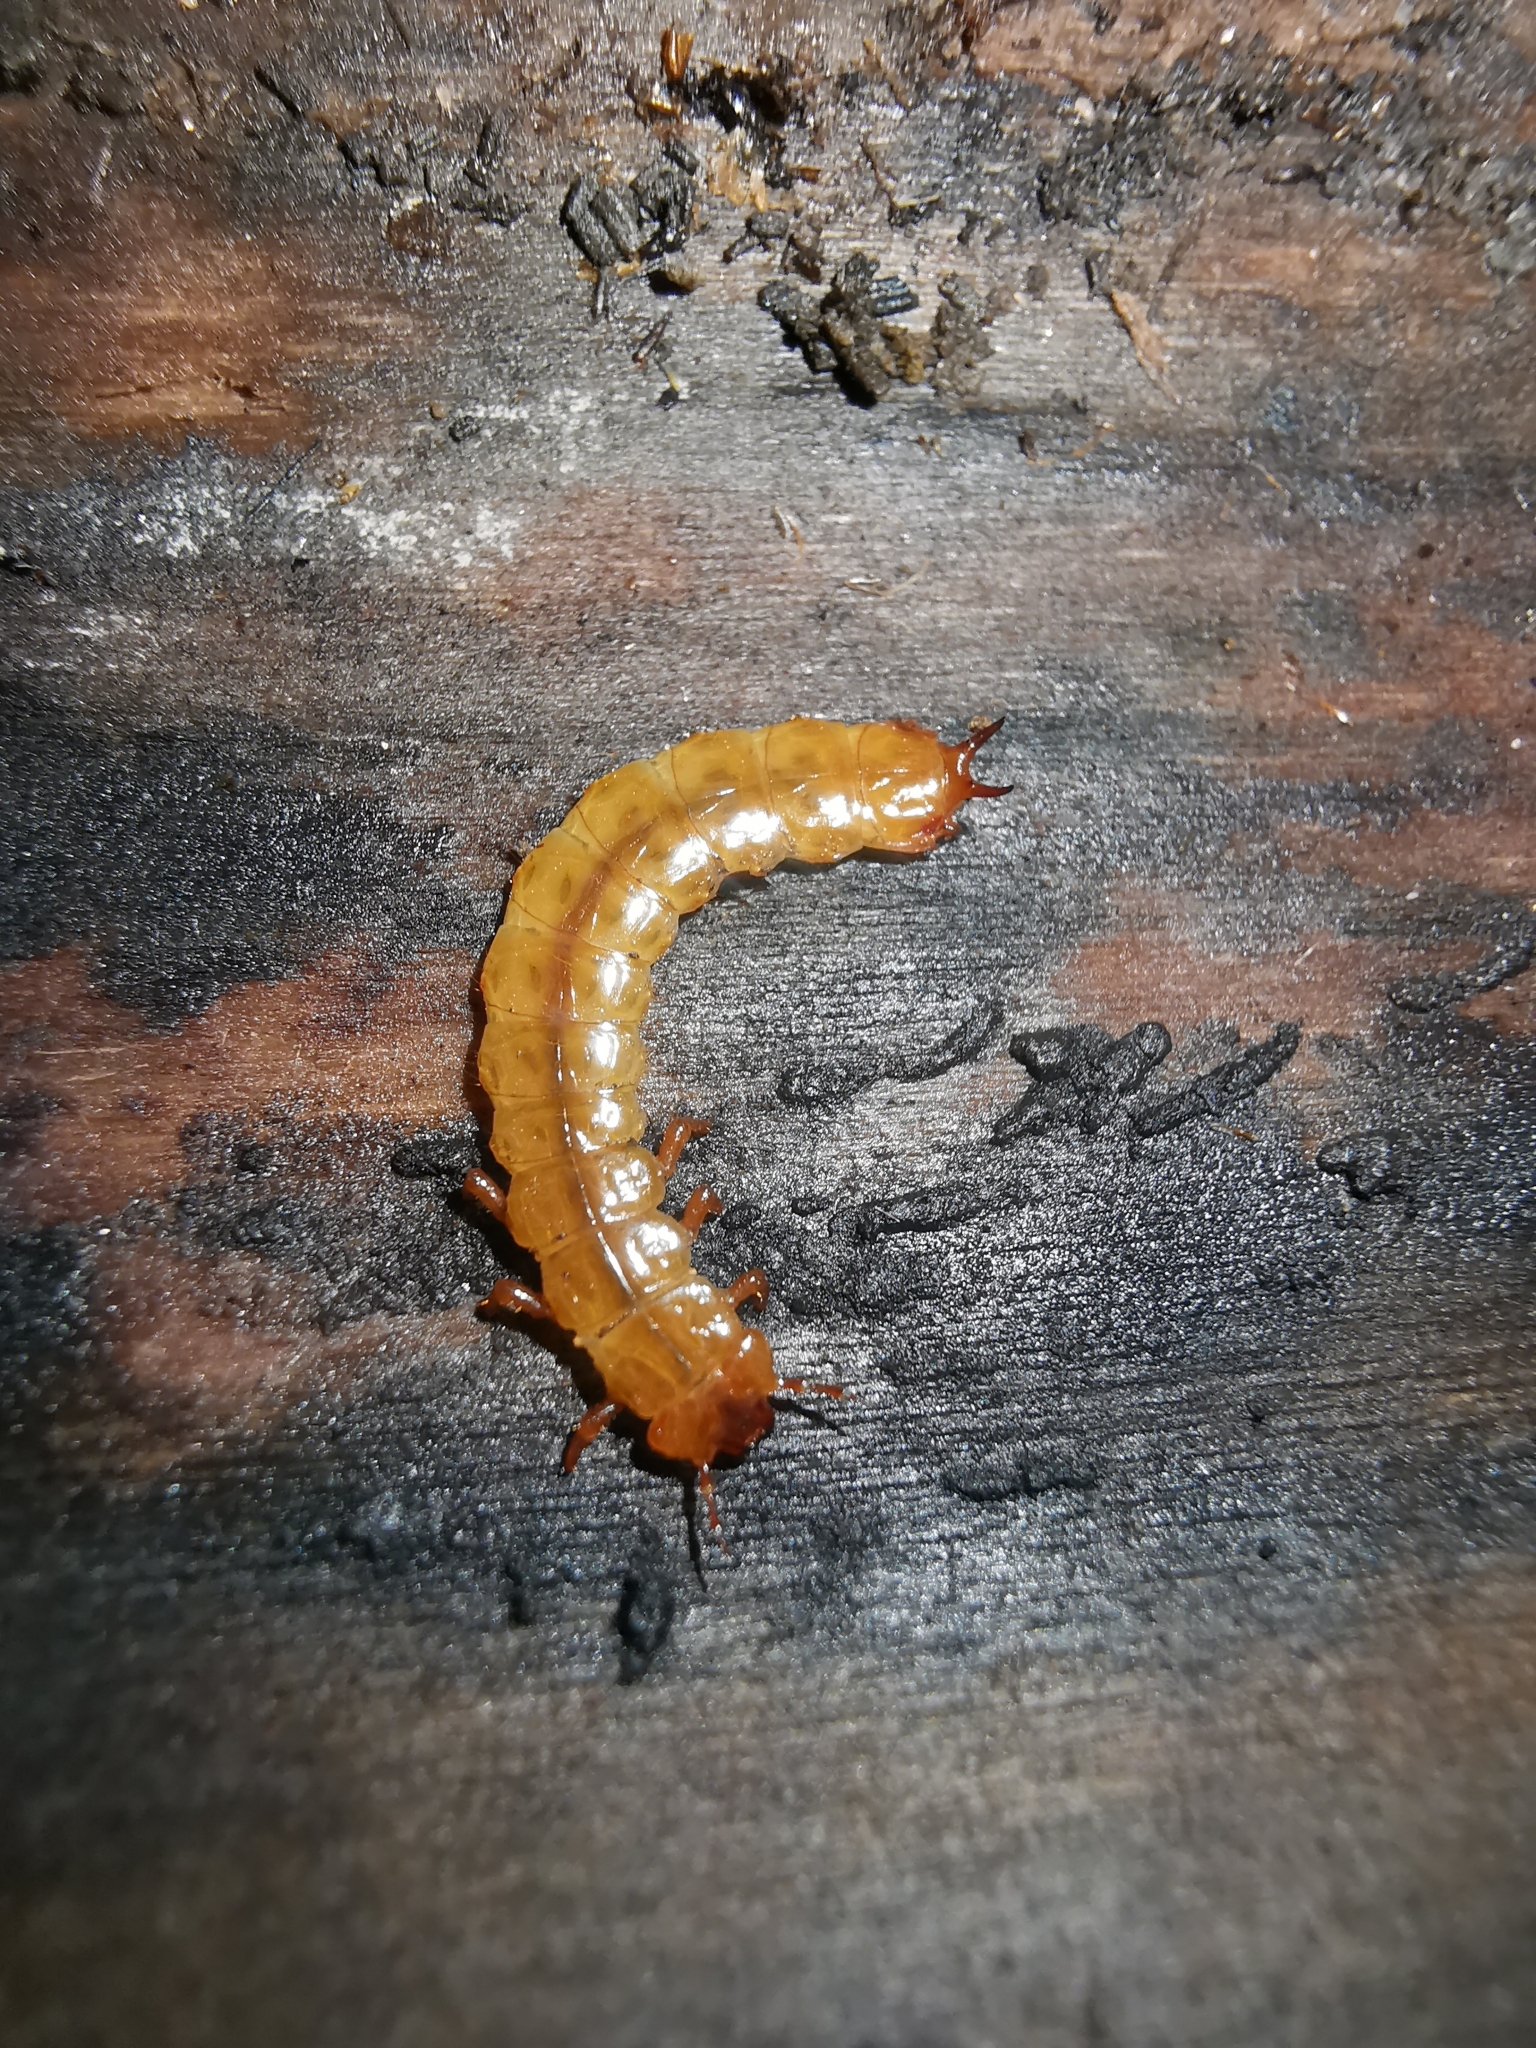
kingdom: Animalia
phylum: Arthropoda
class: Insecta
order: Coleoptera
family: Cucujidae
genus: Cucujus
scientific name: Cucujus cinnaberinus
